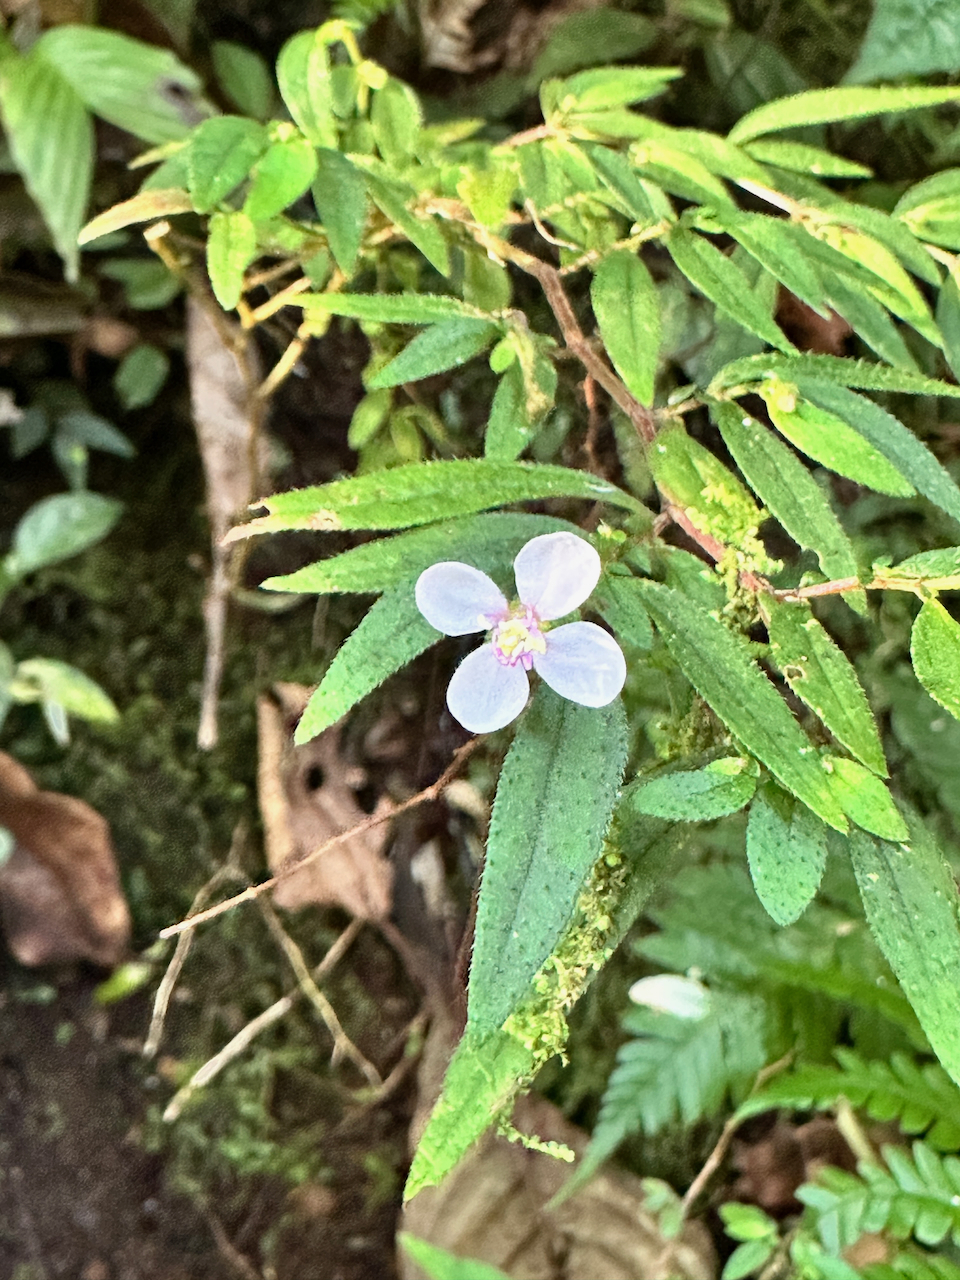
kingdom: Plantae
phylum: Tracheophyta
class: Magnoliopsida
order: Myrtales
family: Melastomataceae
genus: Centradenia
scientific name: Centradenia inaequilateralis
